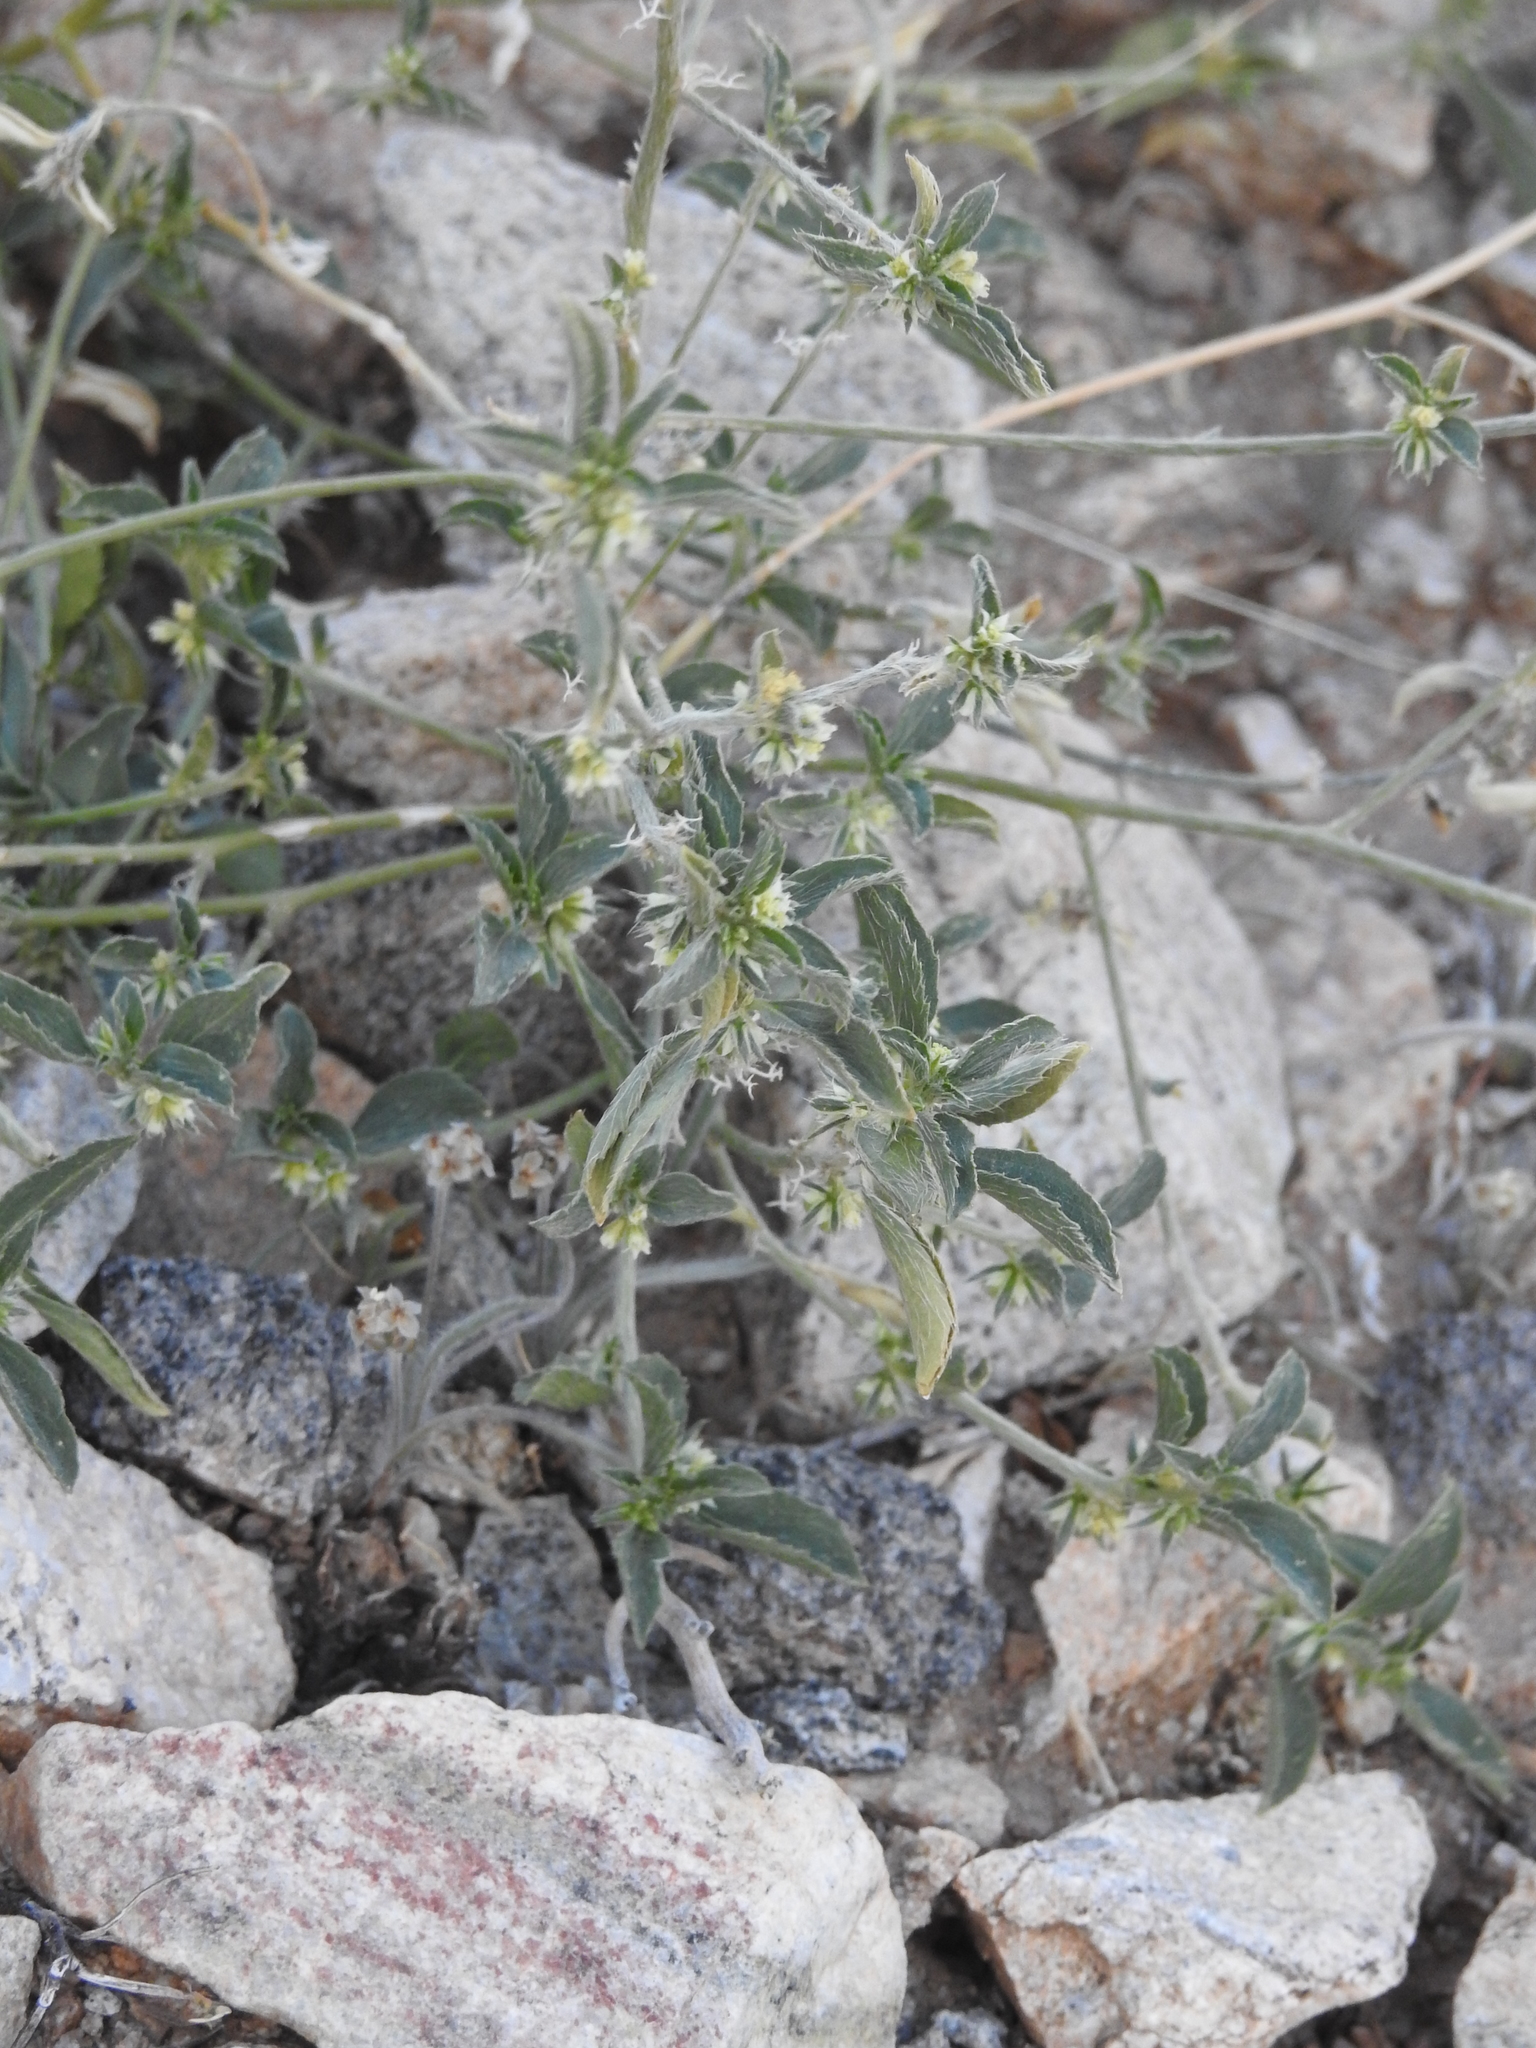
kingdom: Plantae
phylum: Tracheophyta
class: Magnoliopsida
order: Malpighiales
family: Euphorbiaceae
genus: Ditaxis
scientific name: Ditaxis serrata
